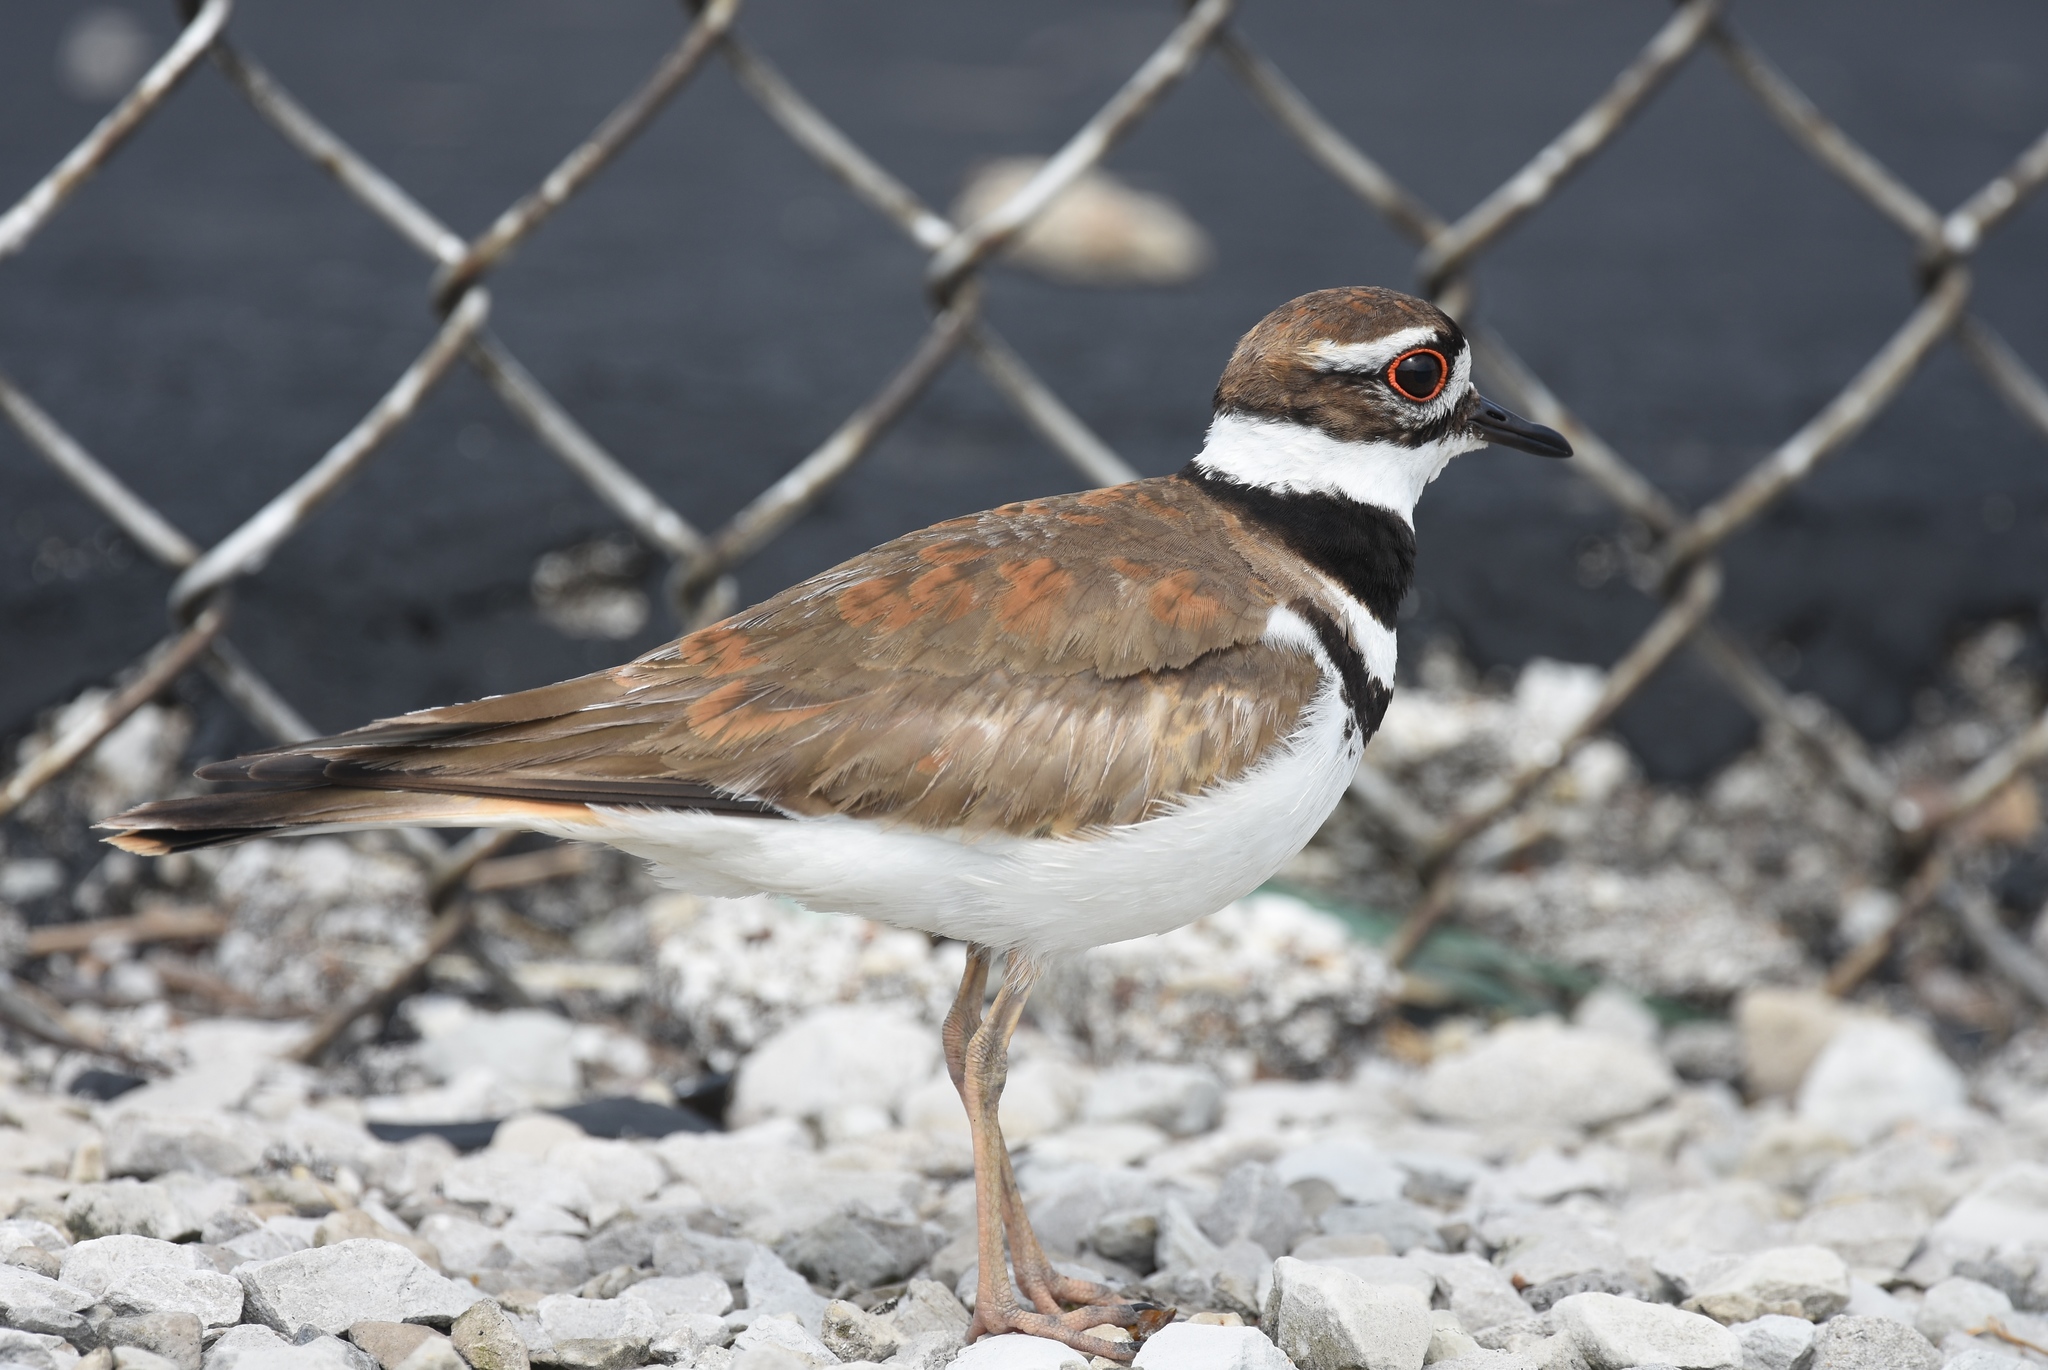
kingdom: Animalia
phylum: Chordata
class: Aves
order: Charadriiformes
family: Charadriidae
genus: Charadrius
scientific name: Charadrius vociferus
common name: Killdeer
